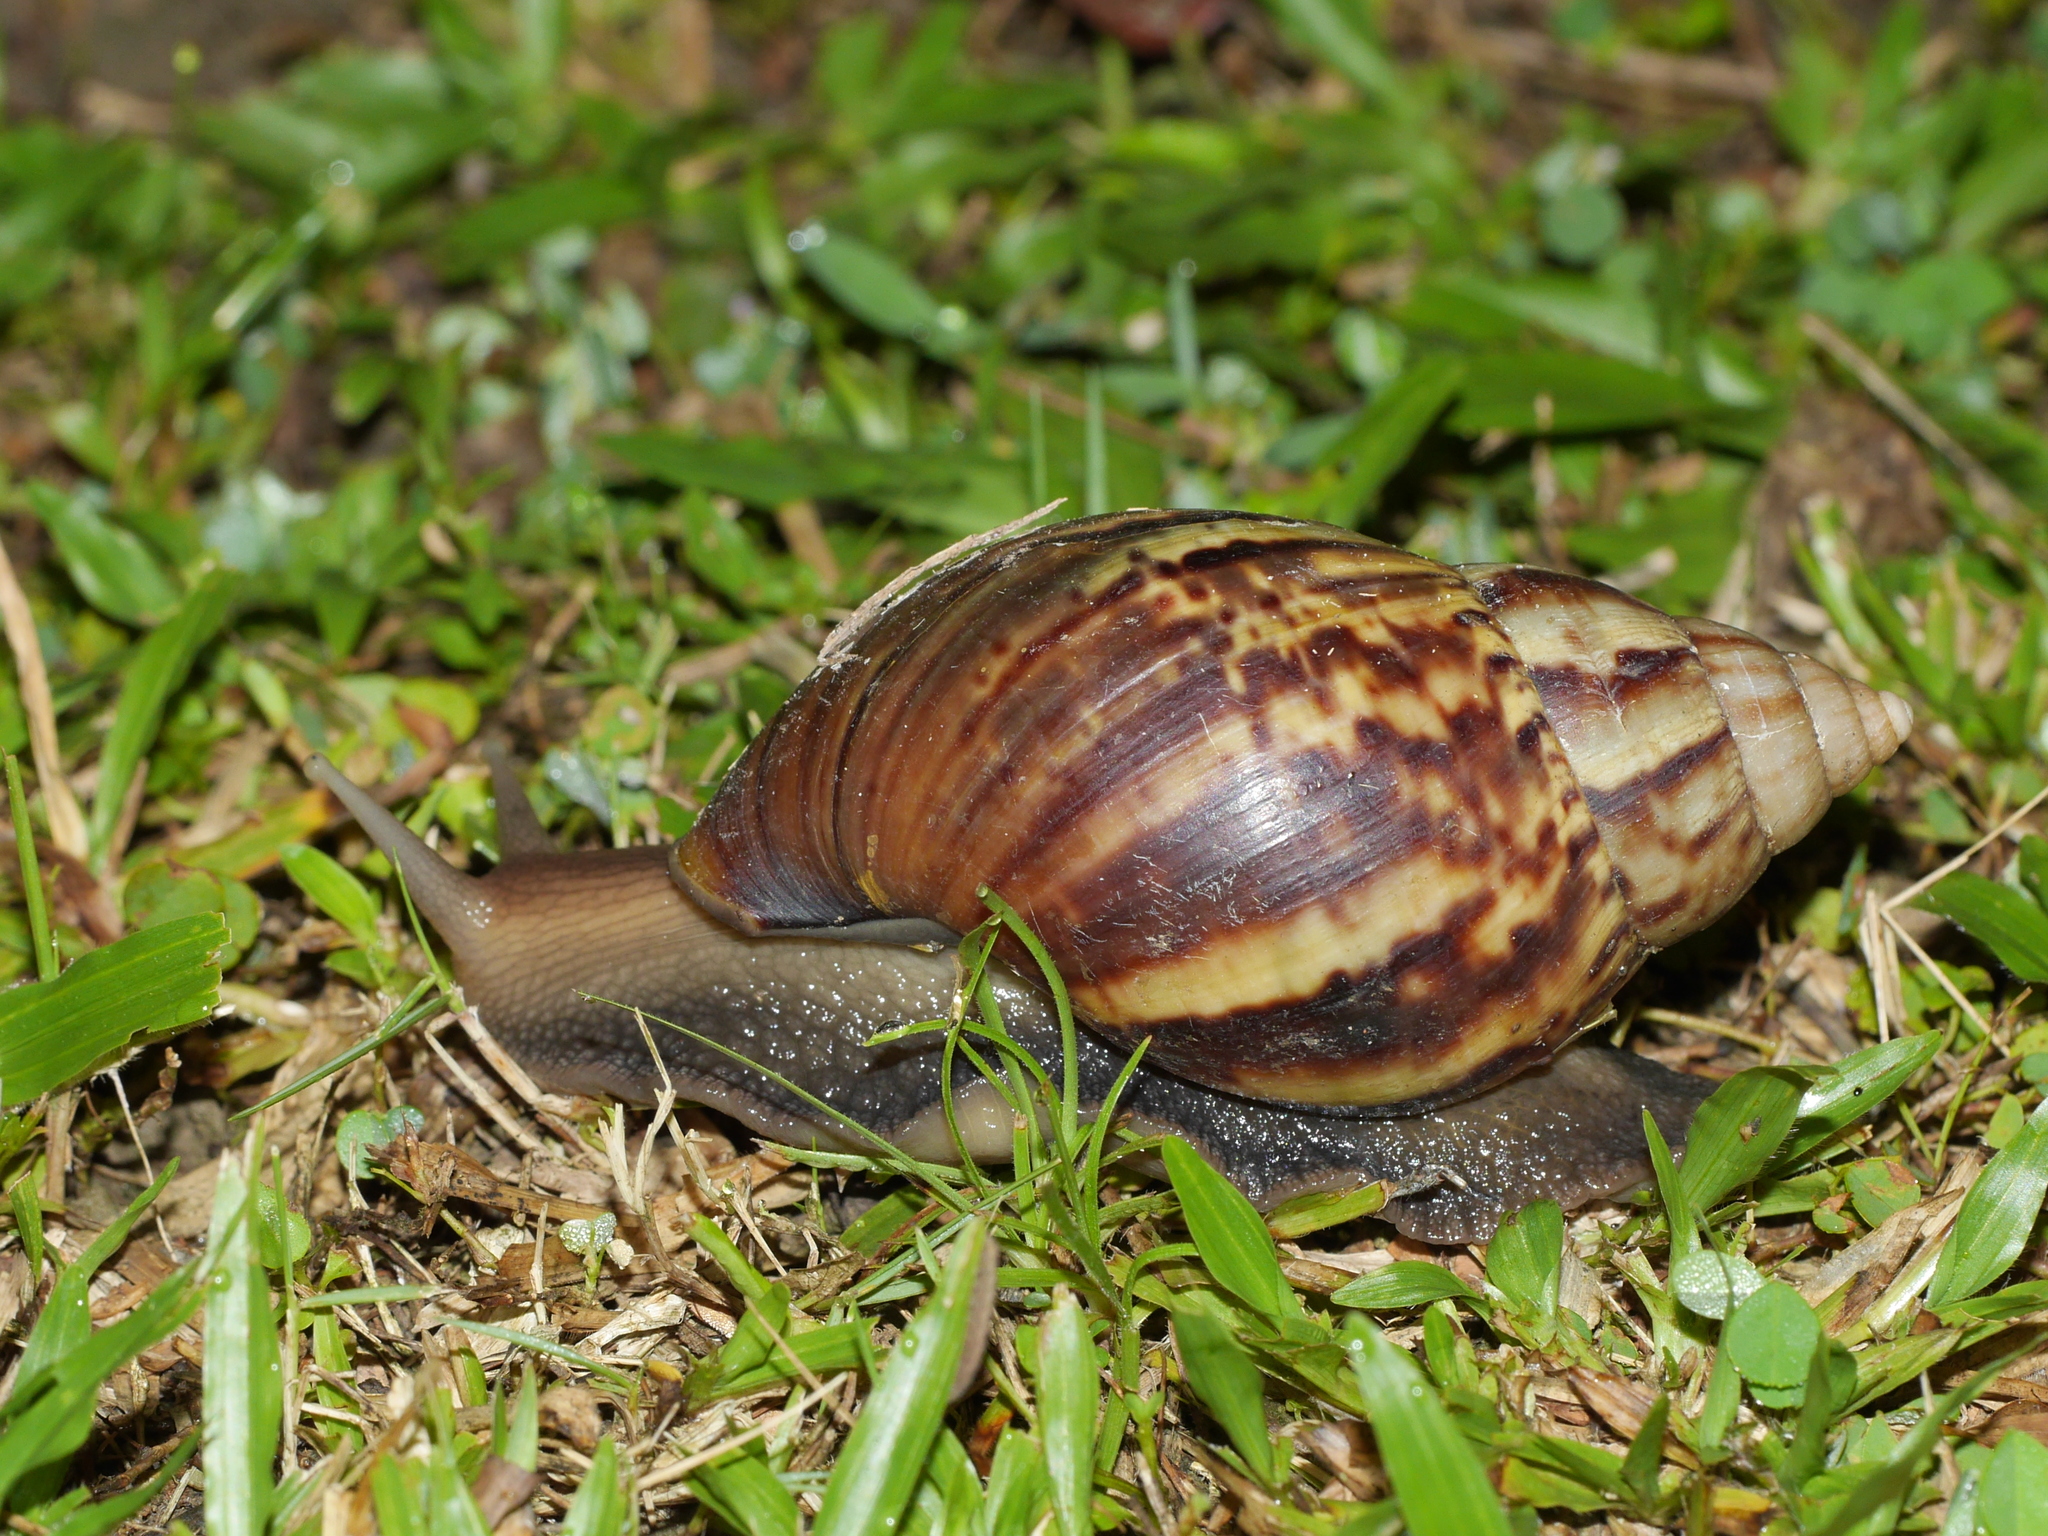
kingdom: Animalia
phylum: Mollusca
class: Gastropoda
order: Stylommatophora
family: Achatinidae
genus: Lissachatina
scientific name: Lissachatina fulica
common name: Giant african snail
